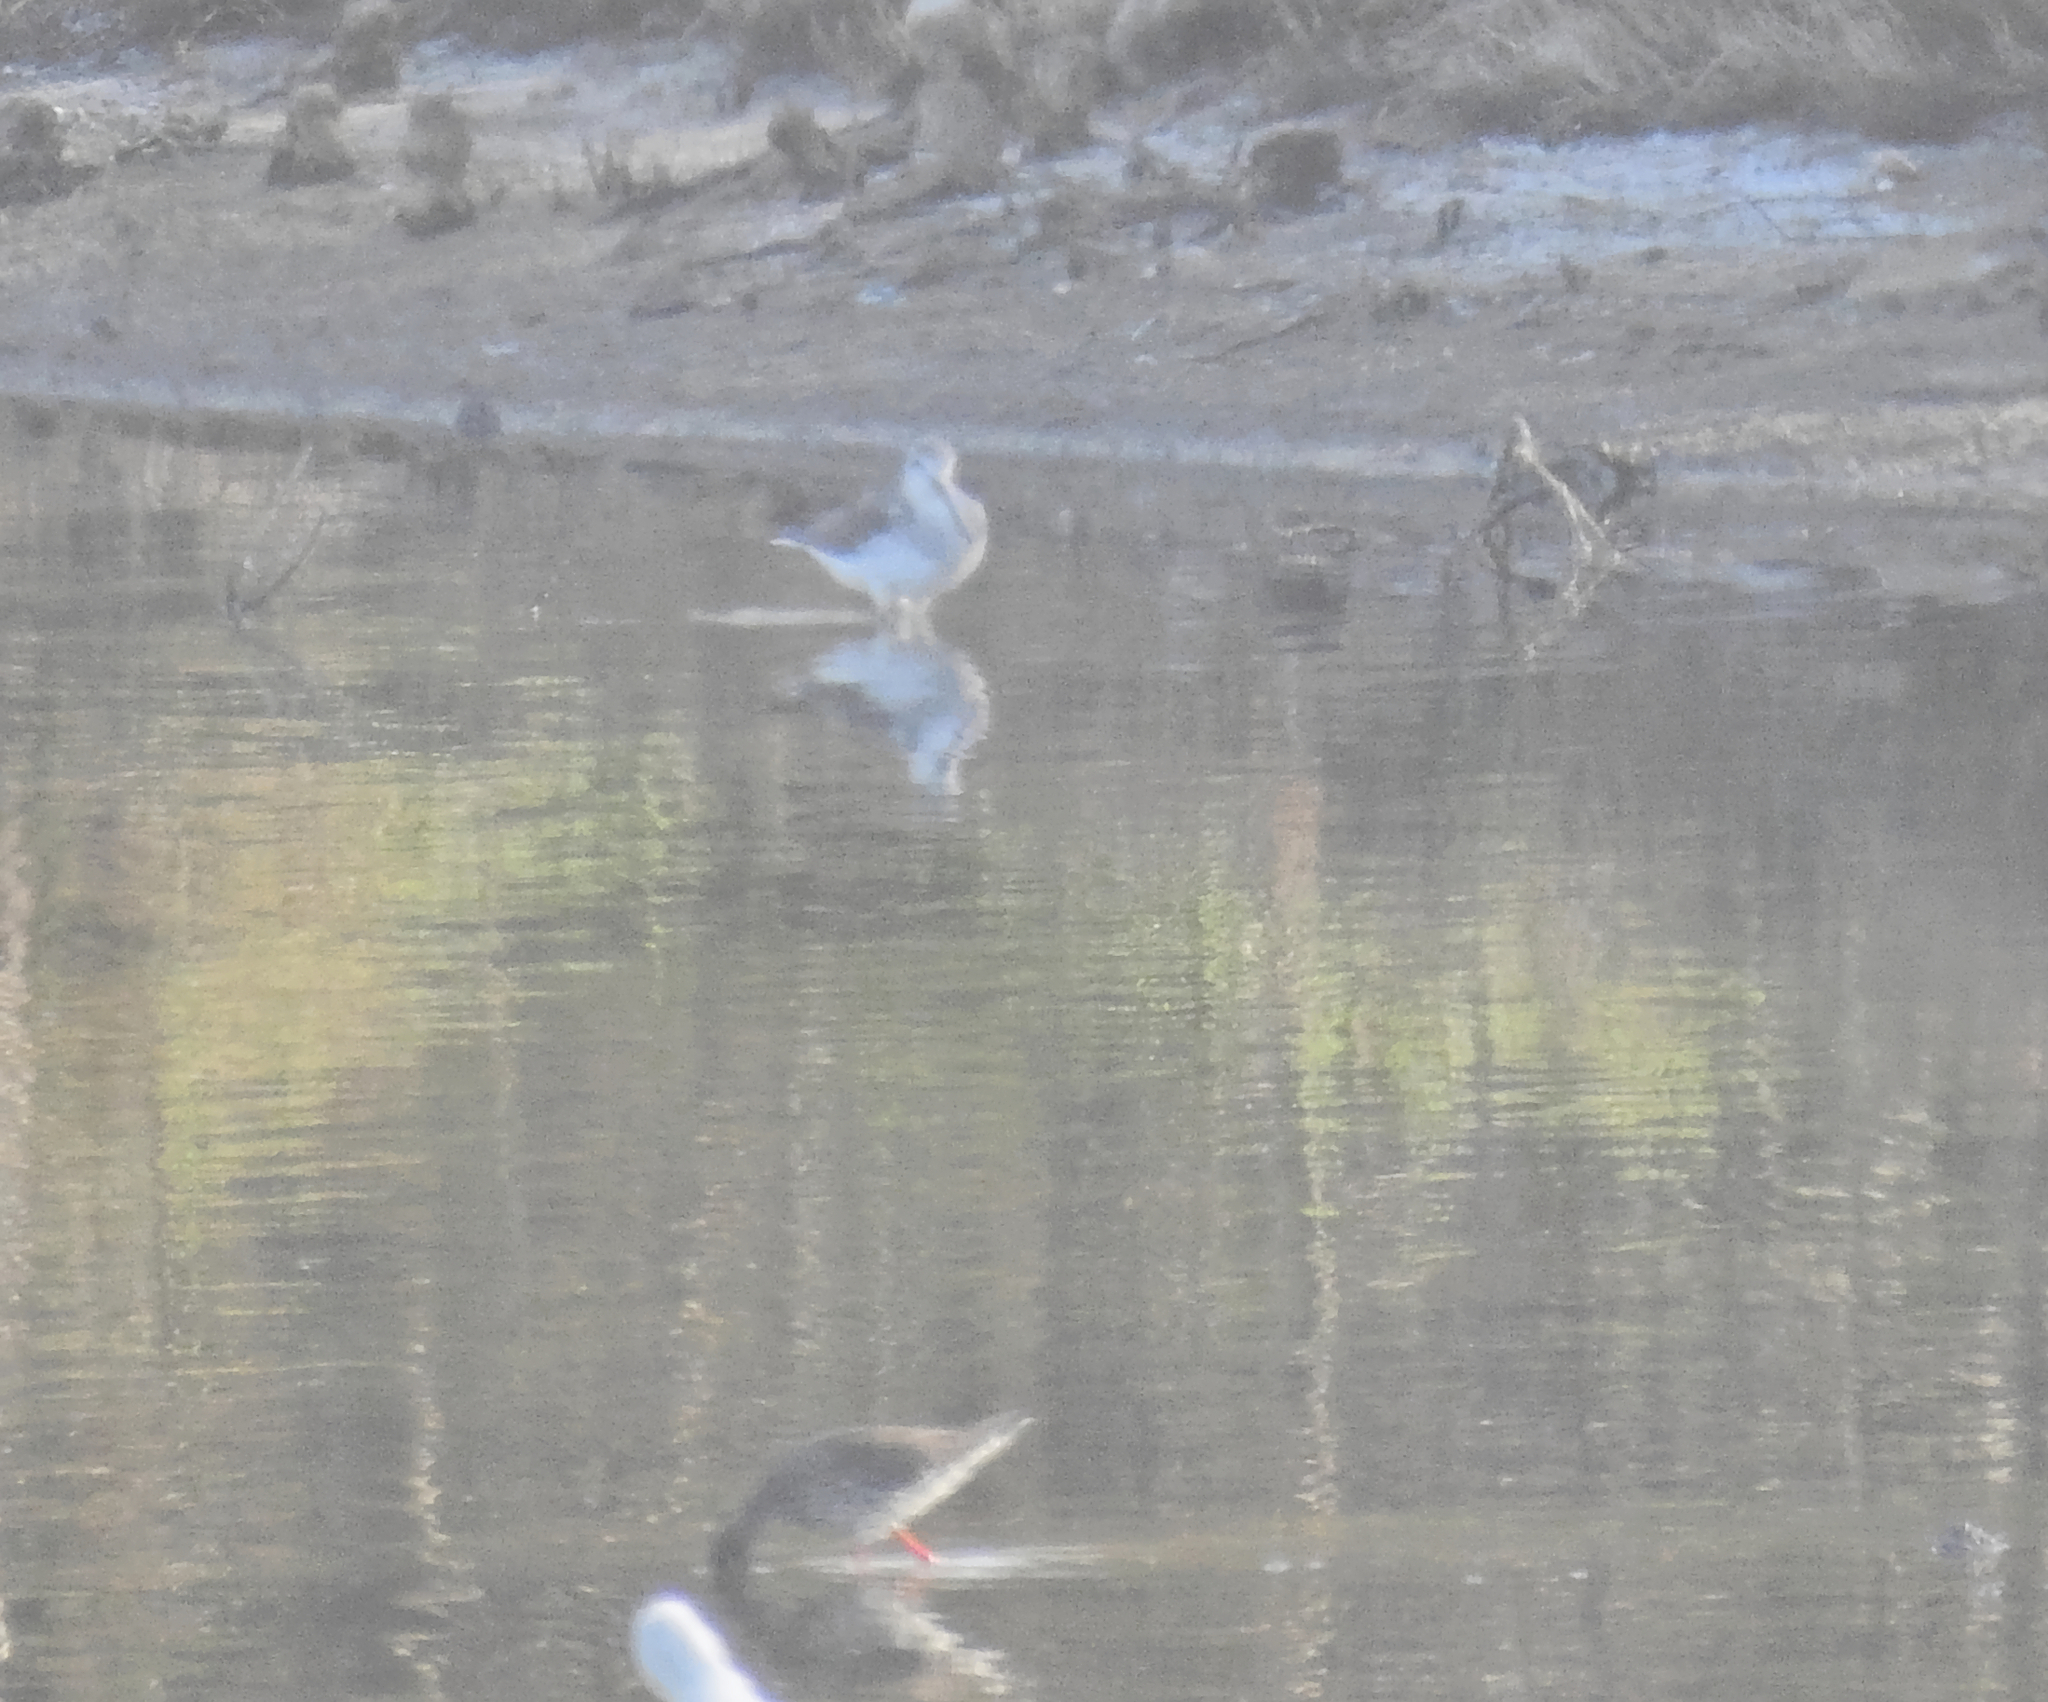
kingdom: Animalia
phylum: Chordata
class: Aves
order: Charadriiformes
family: Scolopacidae
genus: Tringa
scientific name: Tringa nebularia
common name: Common greenshank
